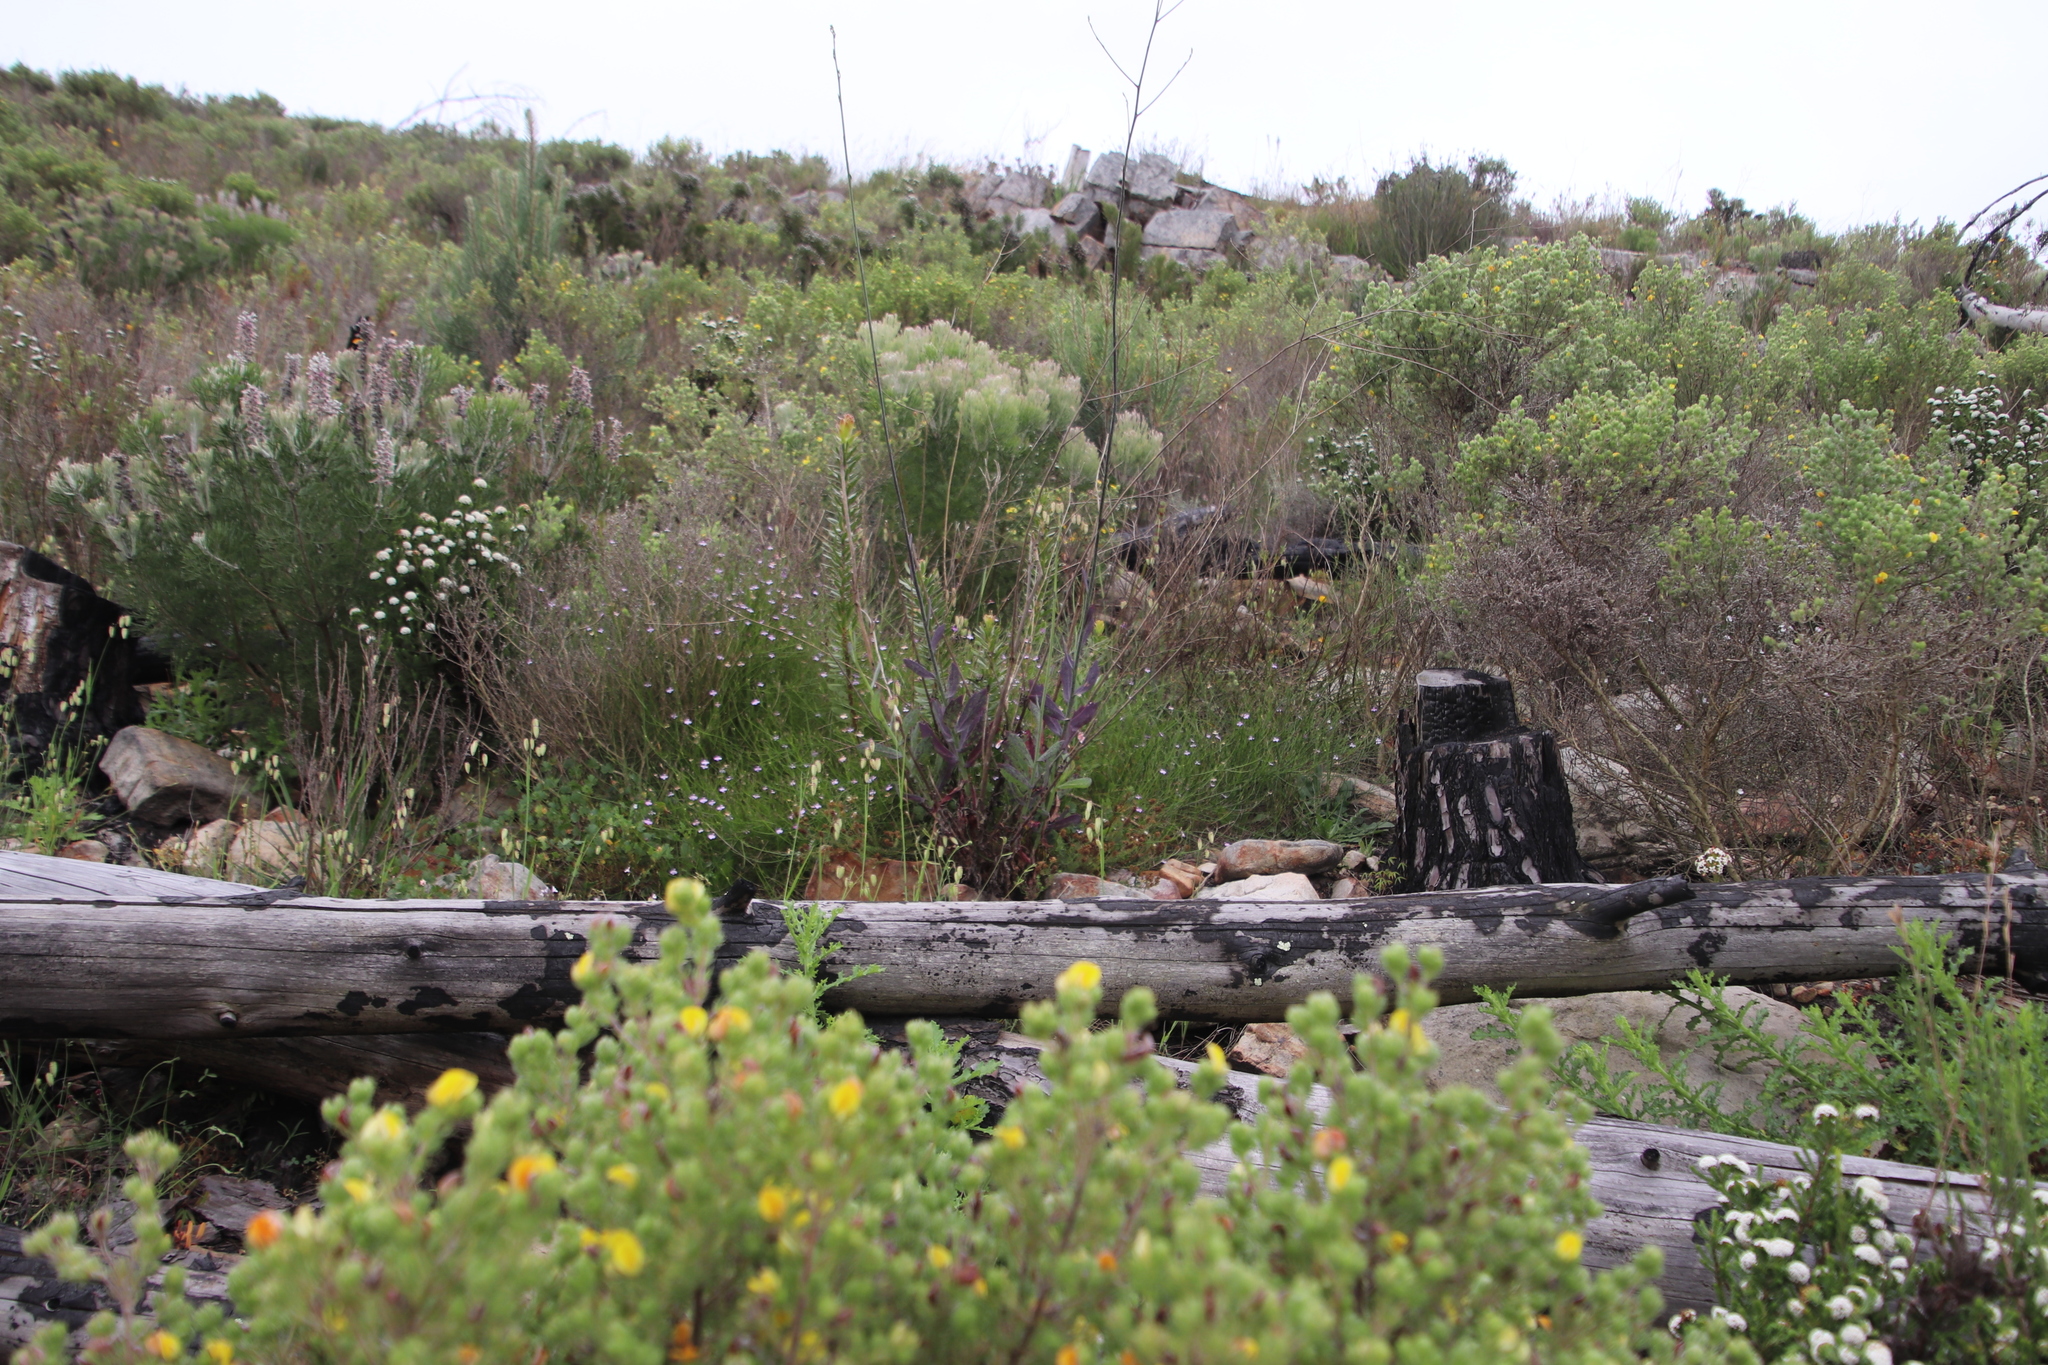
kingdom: Plantae
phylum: Tracheophyta
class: Magnoliopsida
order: Asterales
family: Asteraceae
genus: Othonna
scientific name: Othonna quinquedentata
